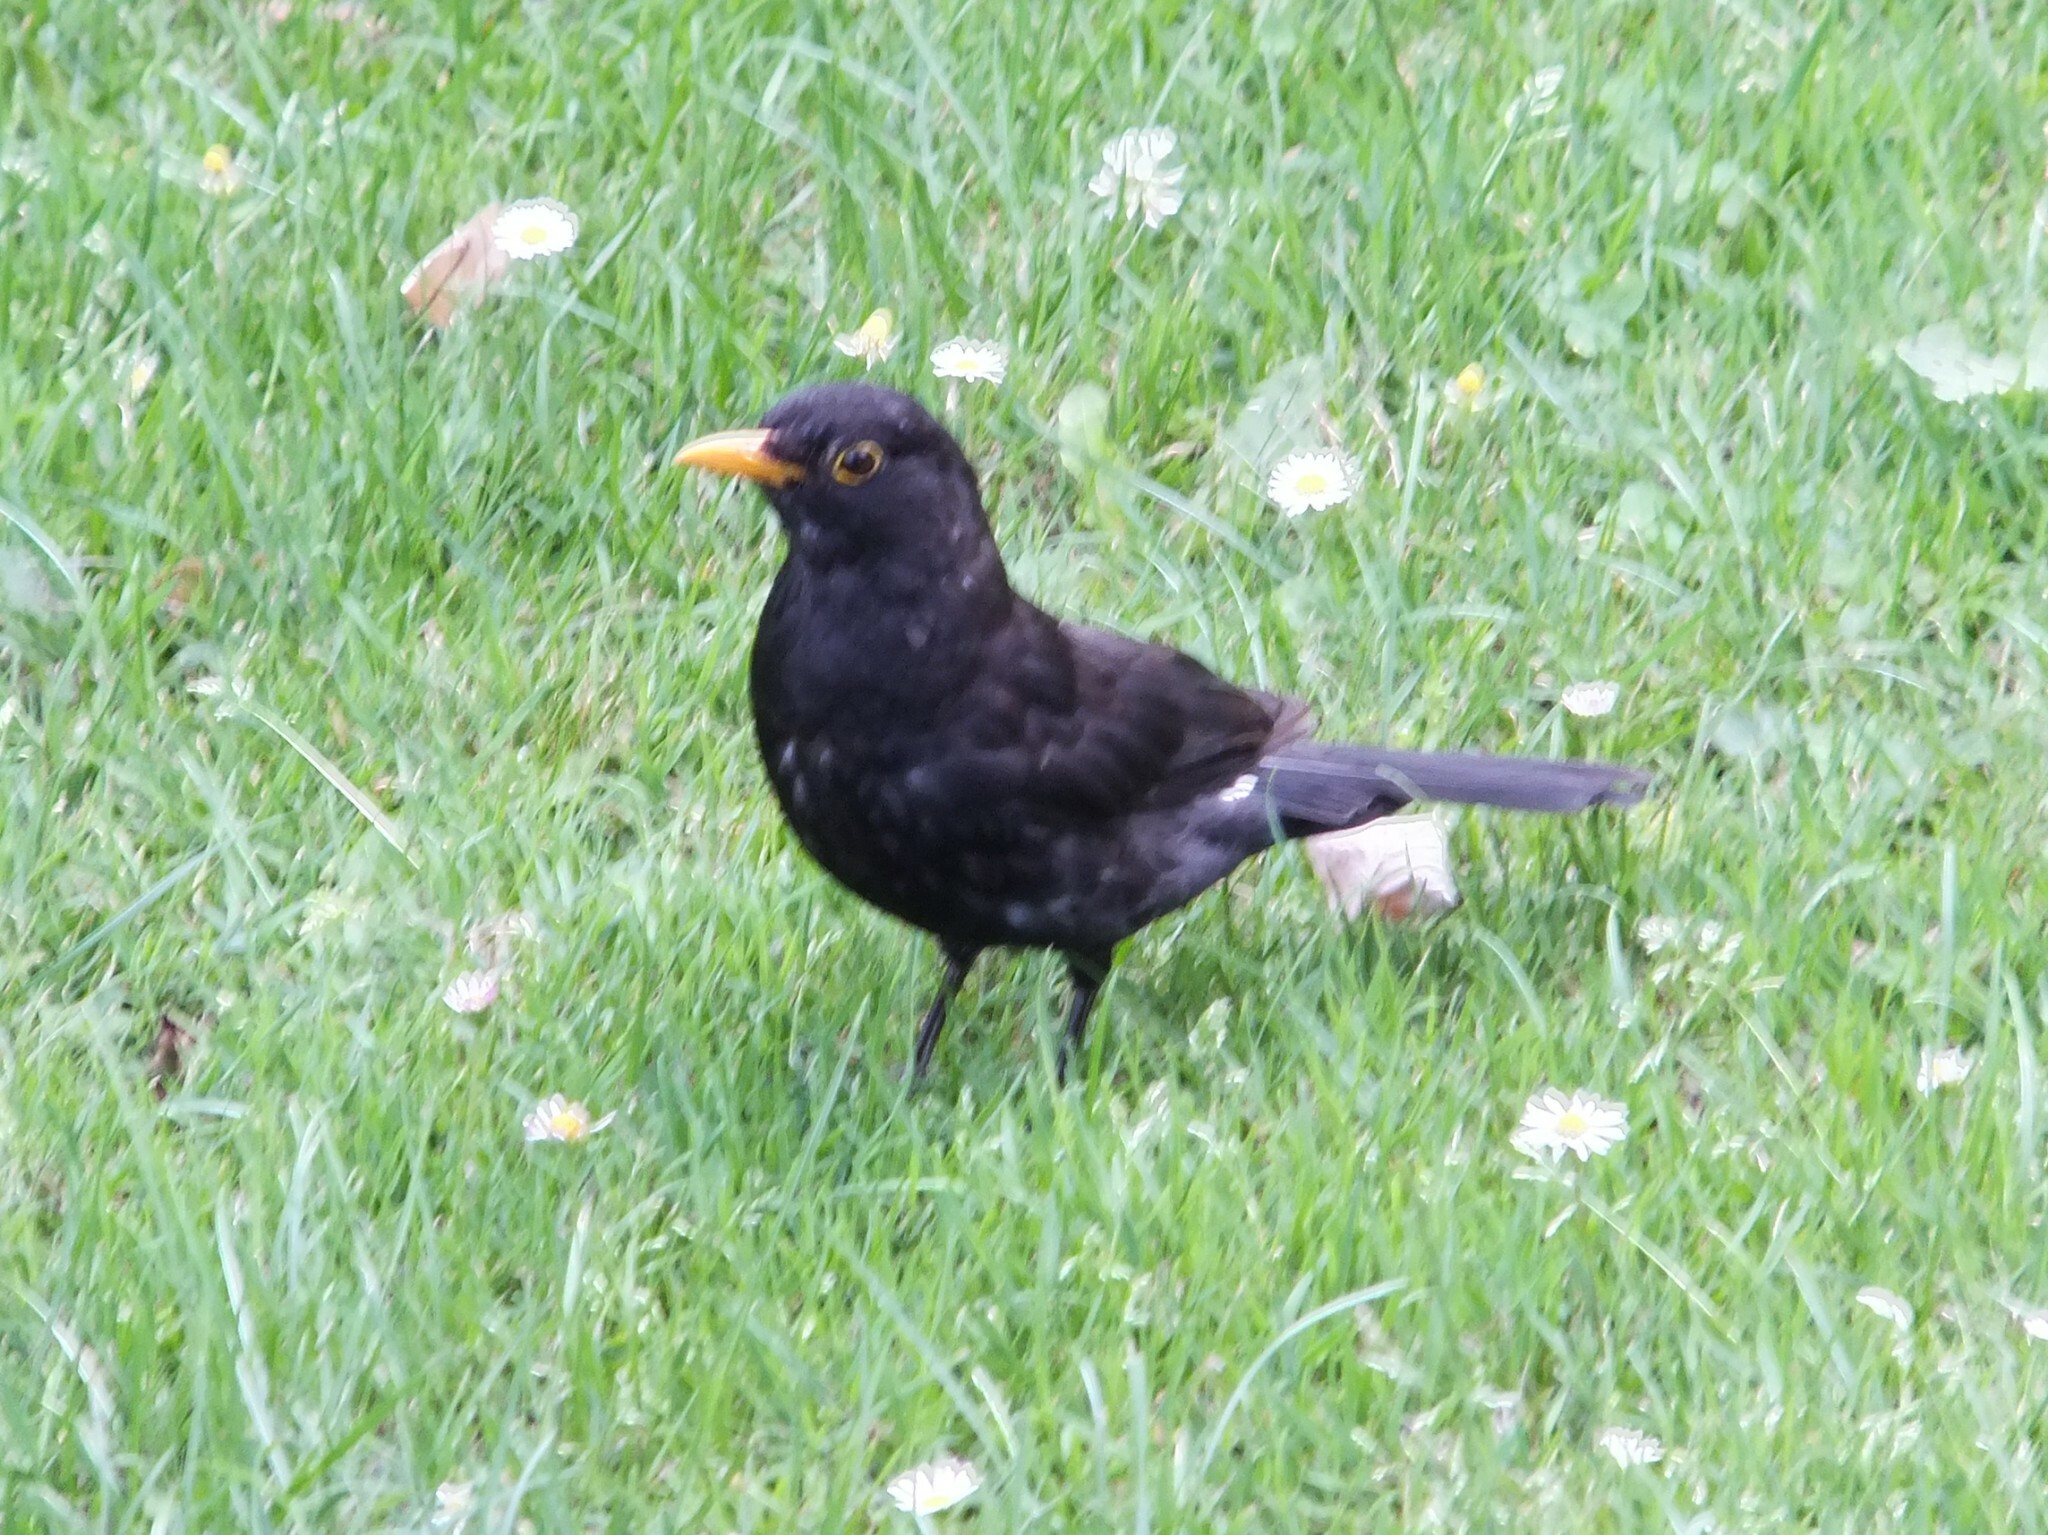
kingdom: Animalia
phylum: Chordata
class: Aves
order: Passeriformes
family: Turdidae
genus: Turdus
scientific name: Turdus merula
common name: Common blackbird
